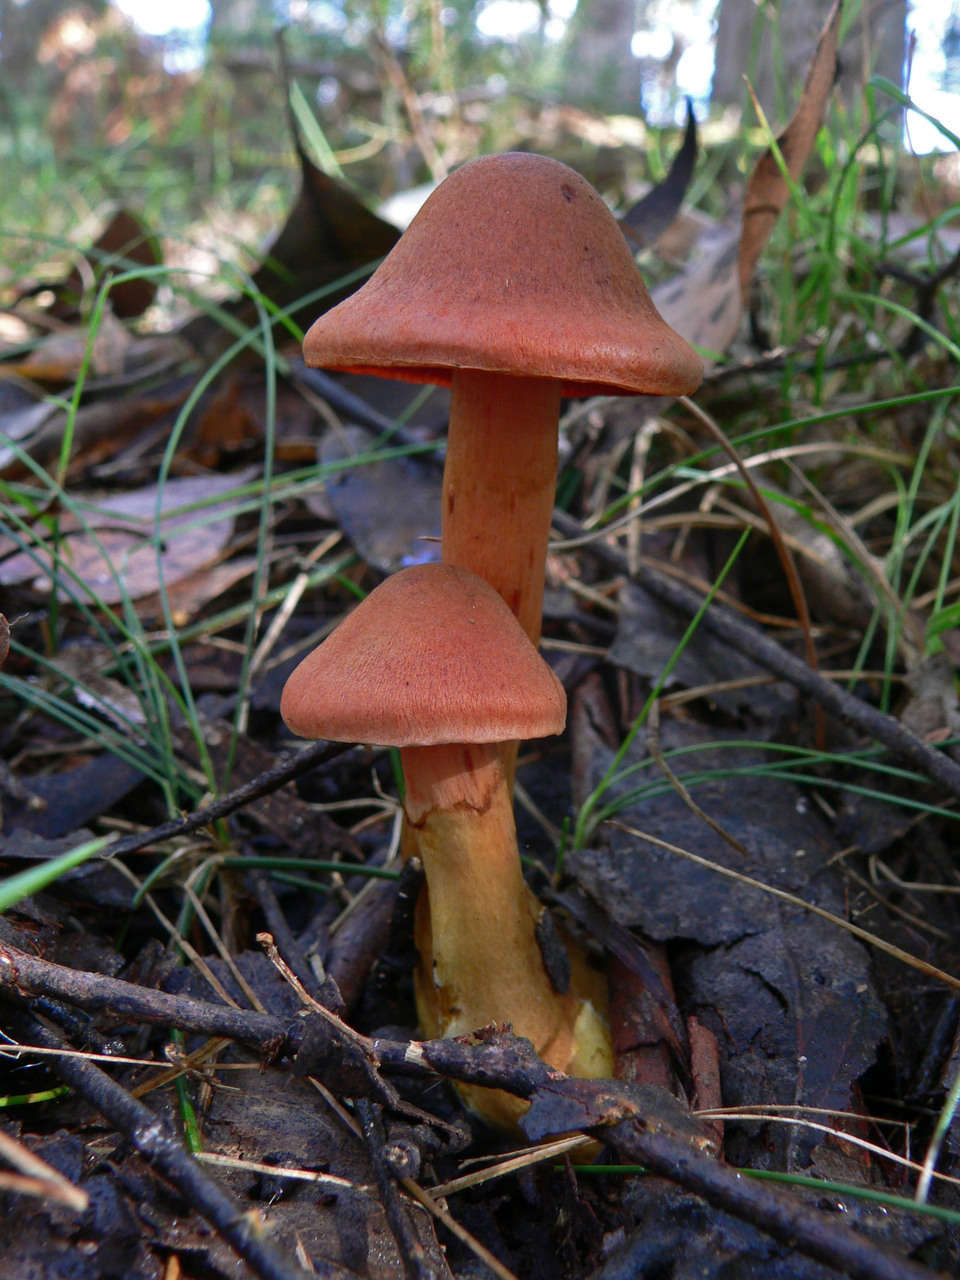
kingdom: Fungi
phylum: Basidiomycota
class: Agaricomycetes
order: Agaricales
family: Cortinariaceae
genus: Cortinarius
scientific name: Cortinarius persplendidus
